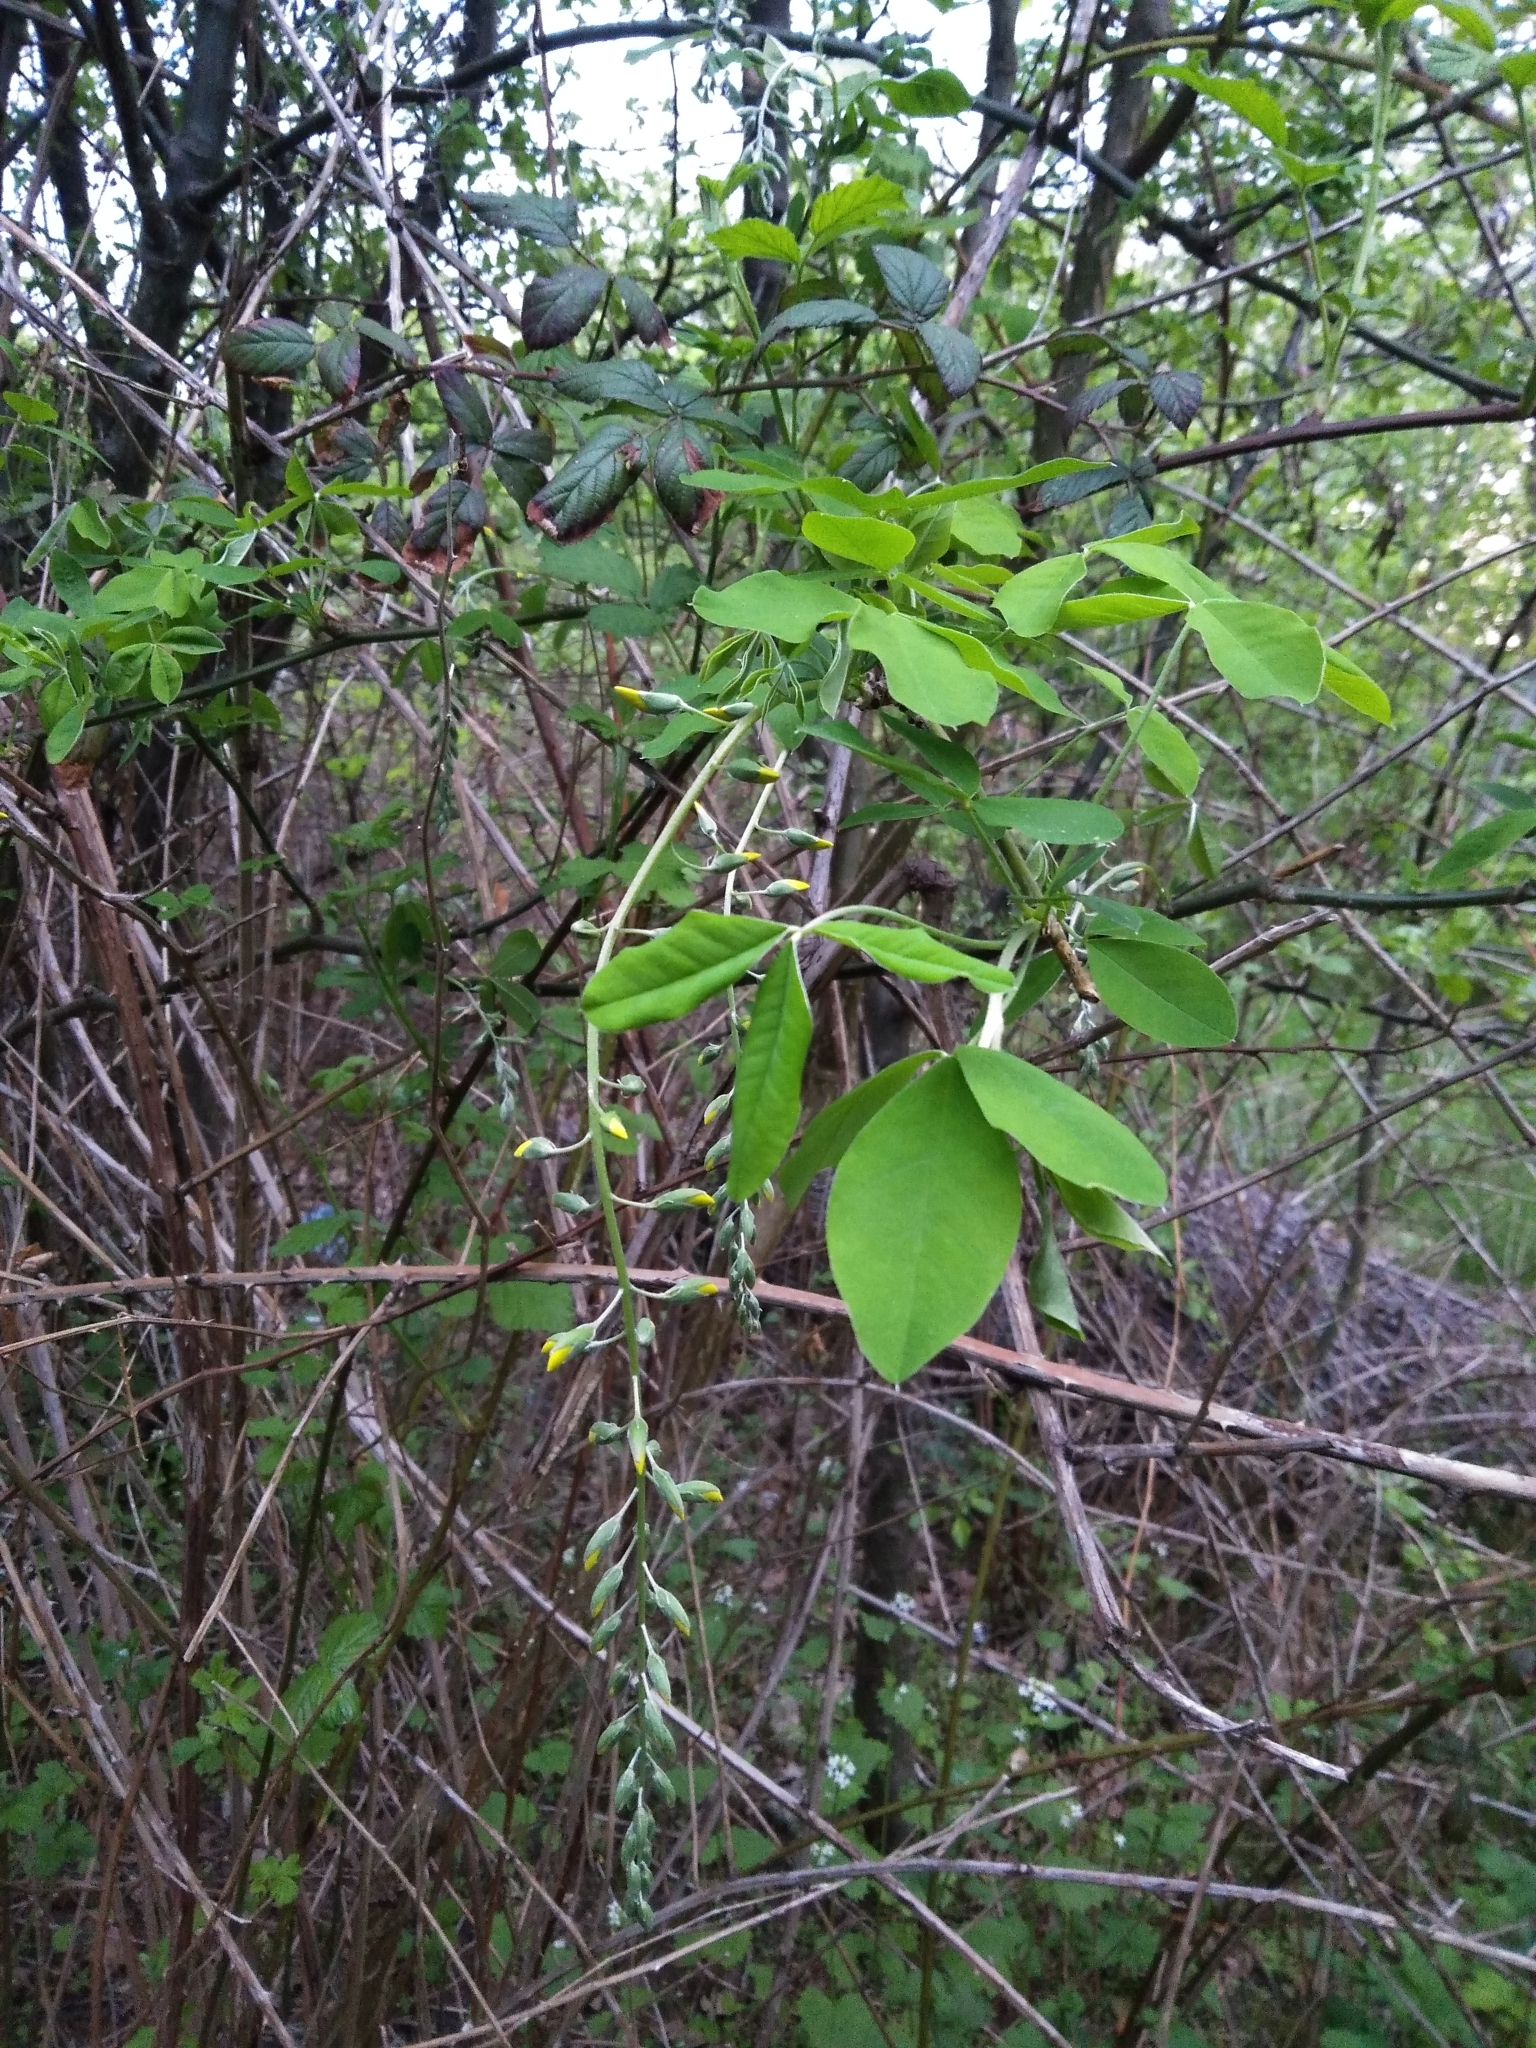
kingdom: Plantae
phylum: Tracheophyta
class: Magnoliopsida
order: Fabales
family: Fabaceae
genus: Laburnum
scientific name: Laburnum anagyroides
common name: Laburnum
